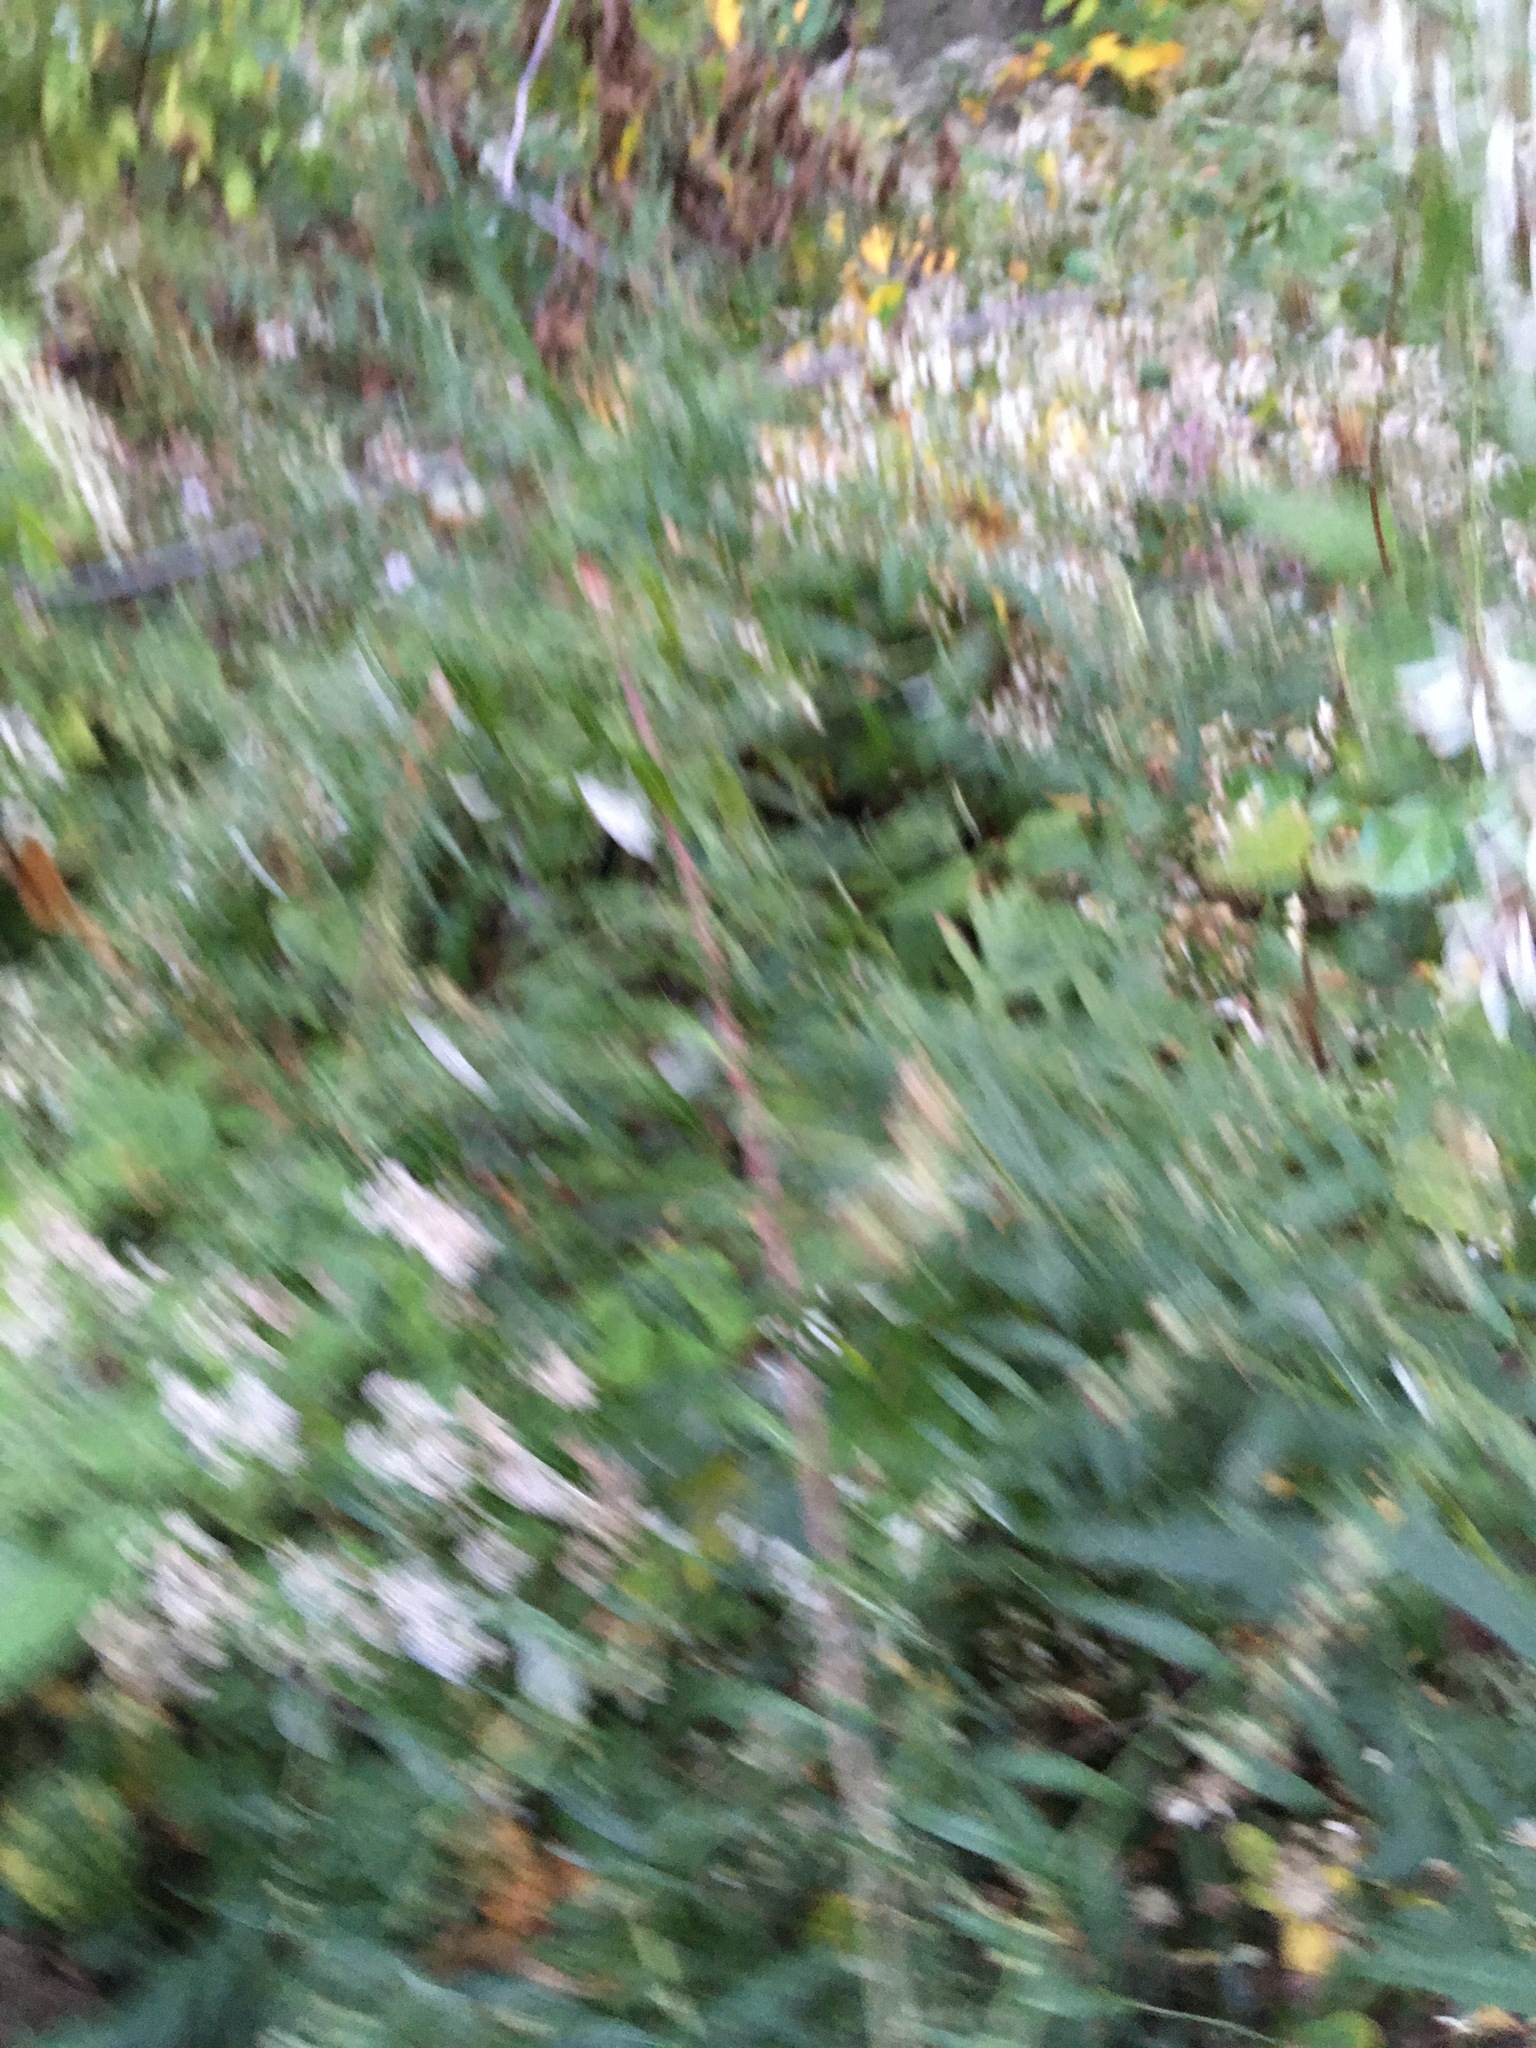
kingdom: Plantae
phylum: Tracheophyta
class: Magnoliopsida
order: Asterales
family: Asteraceae
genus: Artemisia
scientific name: Artemisia vulgaris
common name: Mugwort
